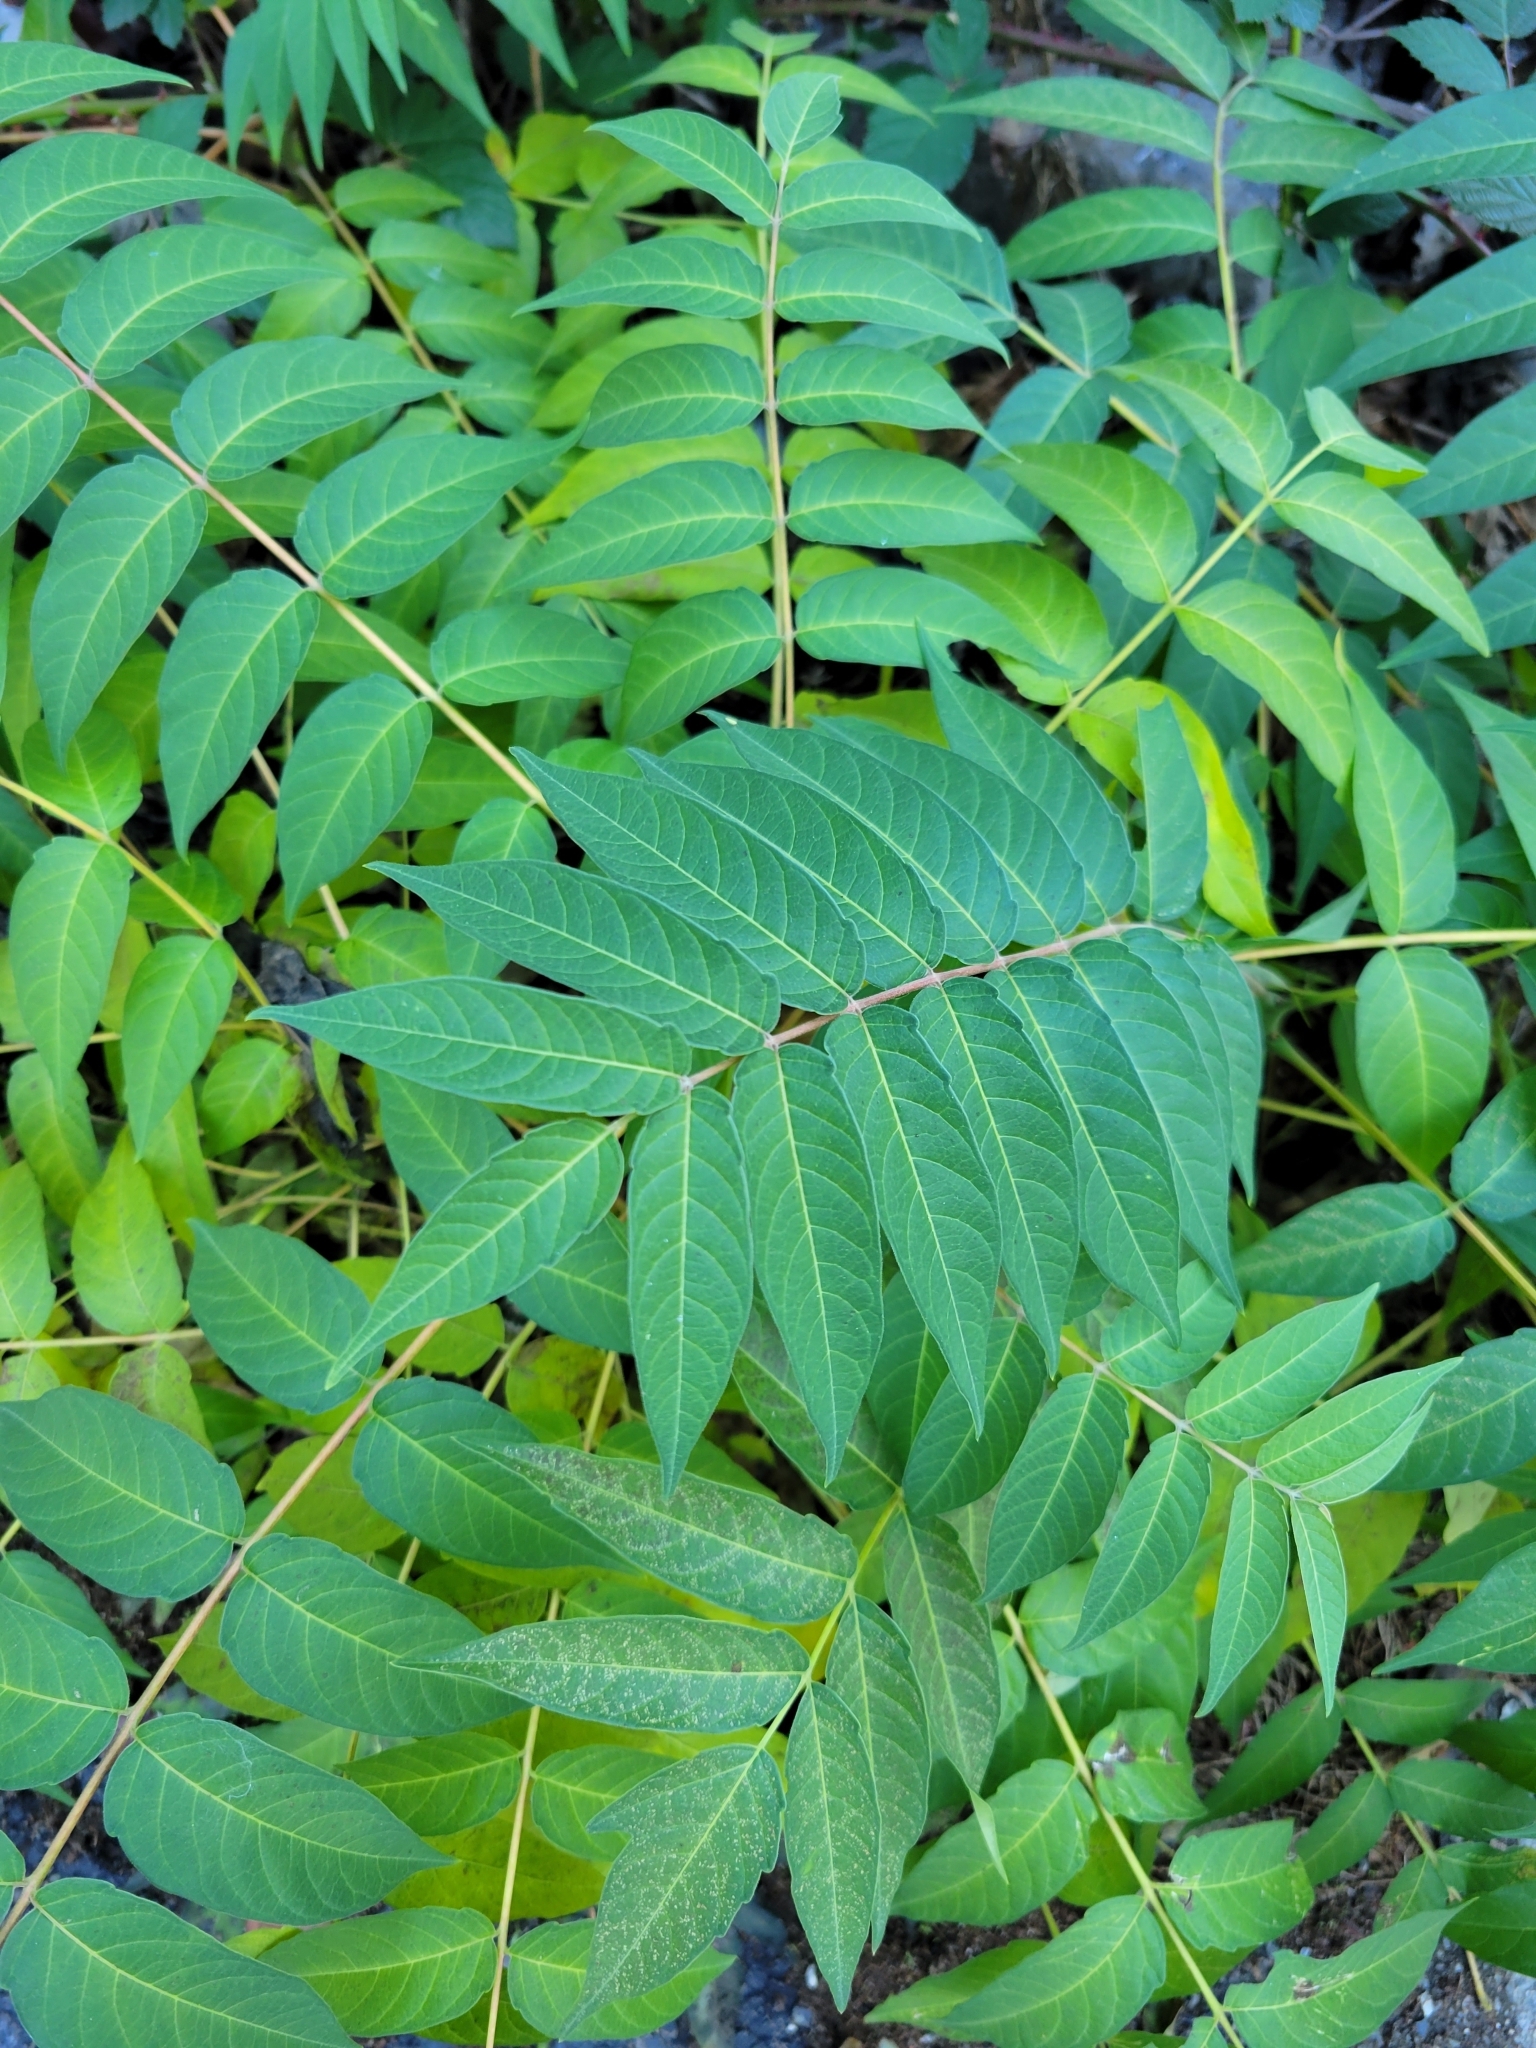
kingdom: Plantae
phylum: Tracheophyta
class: Magnoliopsida
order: Sapindales
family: Simaroubaceae
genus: Ailanthus
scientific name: Ailanthus altissima
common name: Tree-of-heaven
